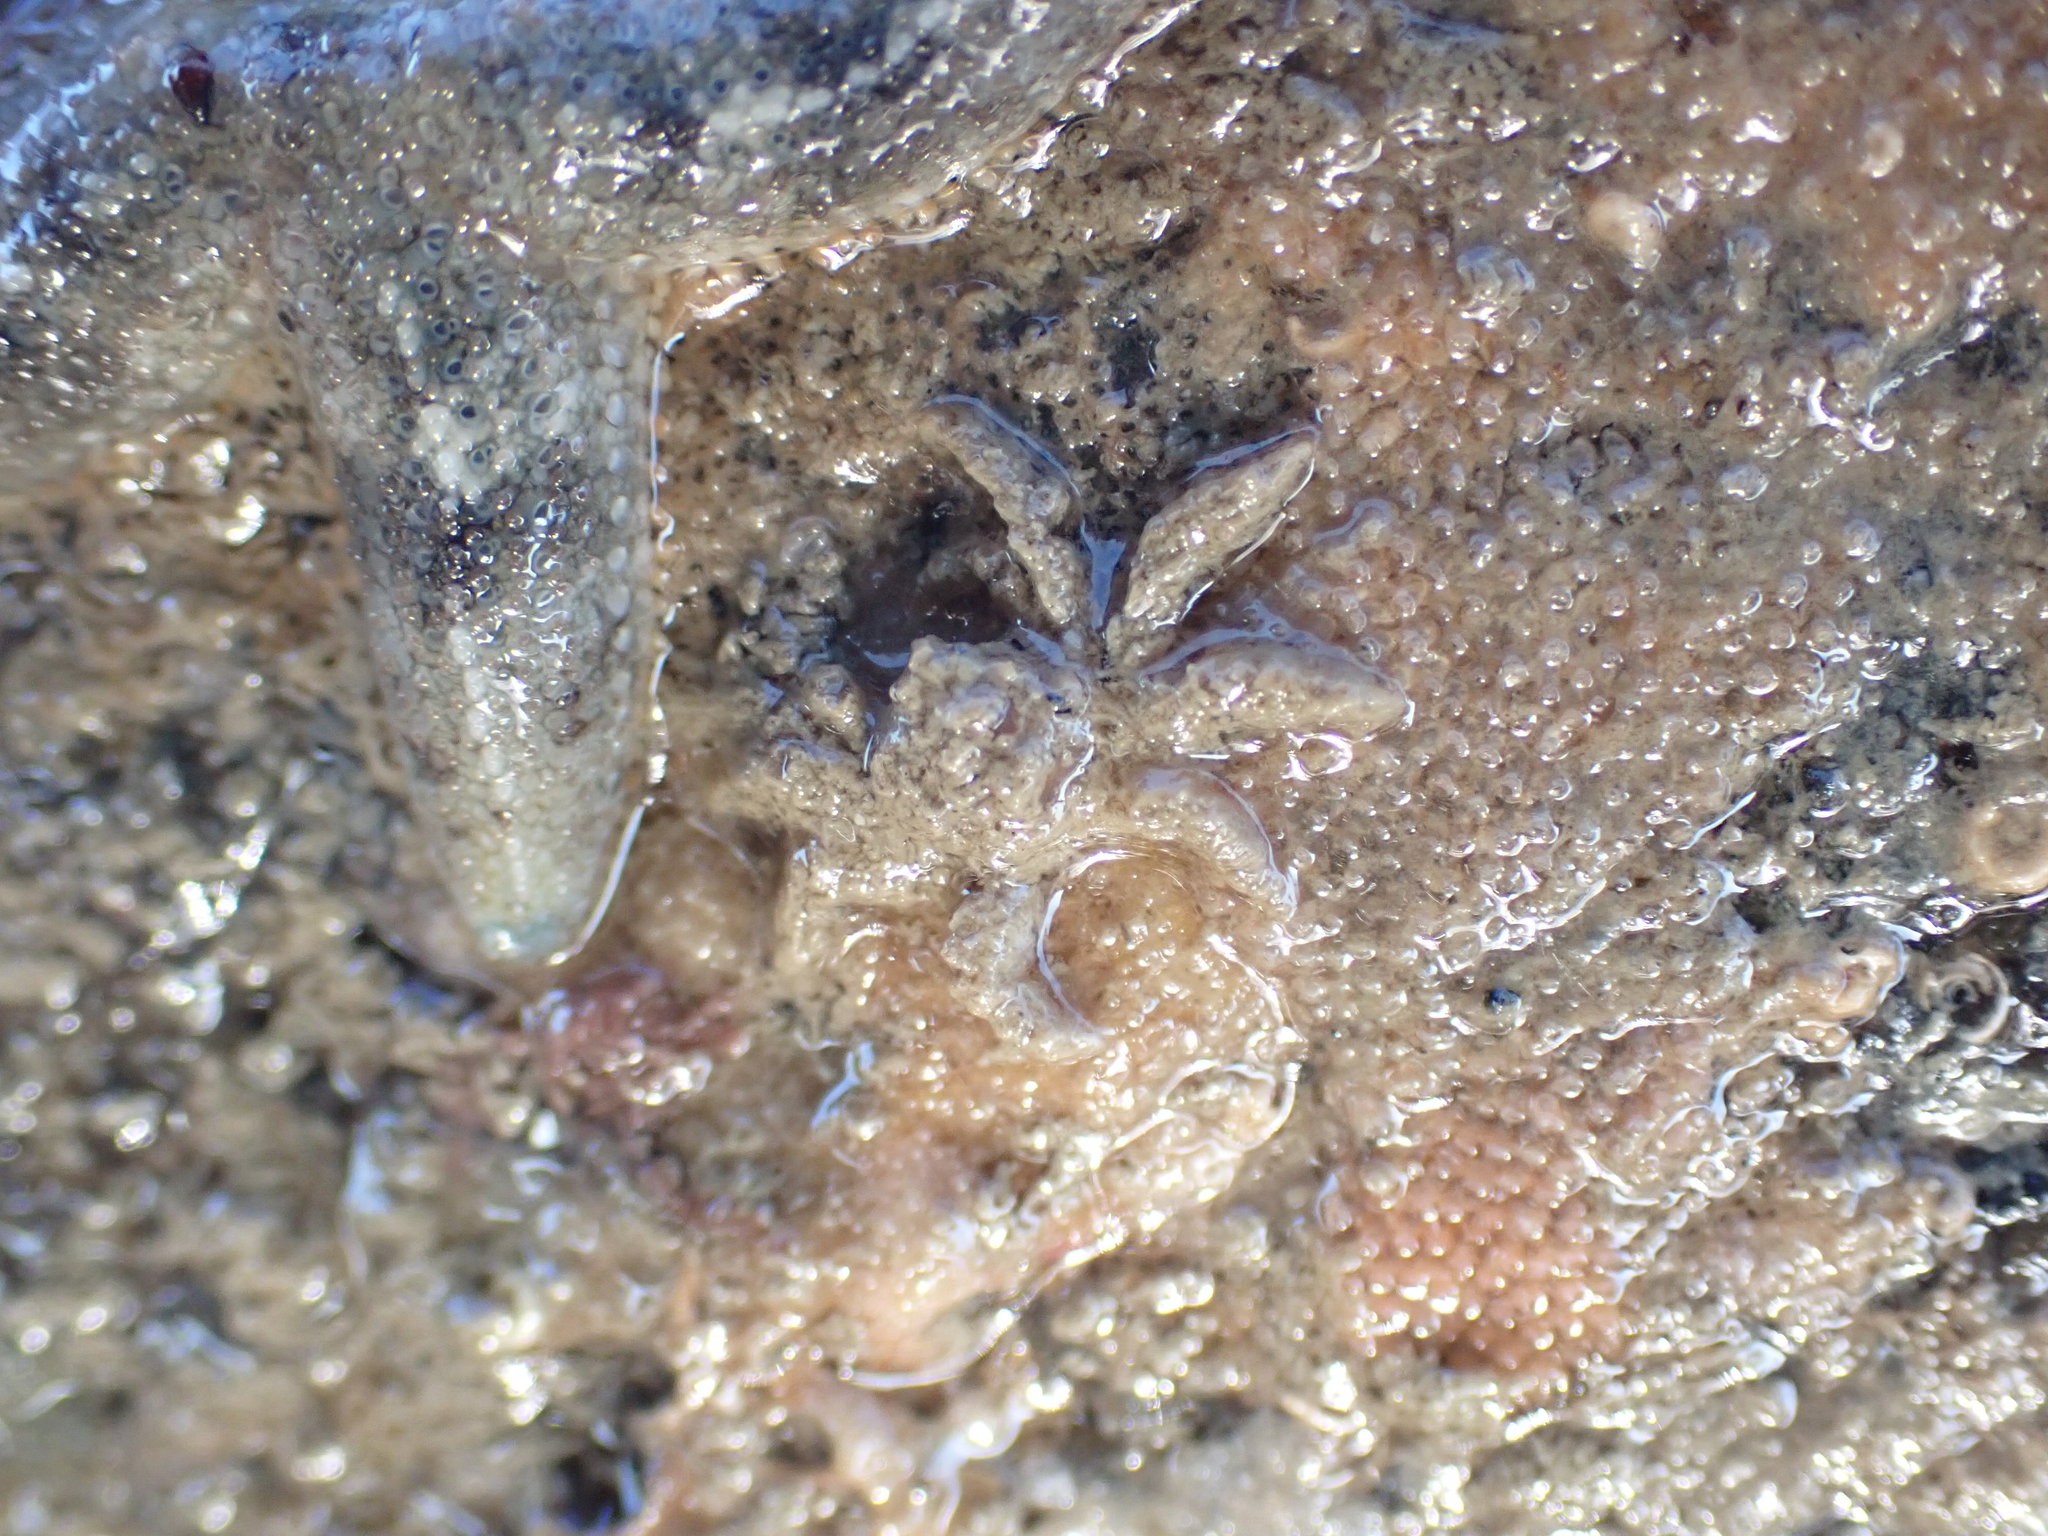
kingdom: Animalia
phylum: Arthropoda
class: Malacostraca
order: Decapoda
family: Hymenosomatidae
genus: Neohymenicus
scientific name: Neohymenicus pubescens
